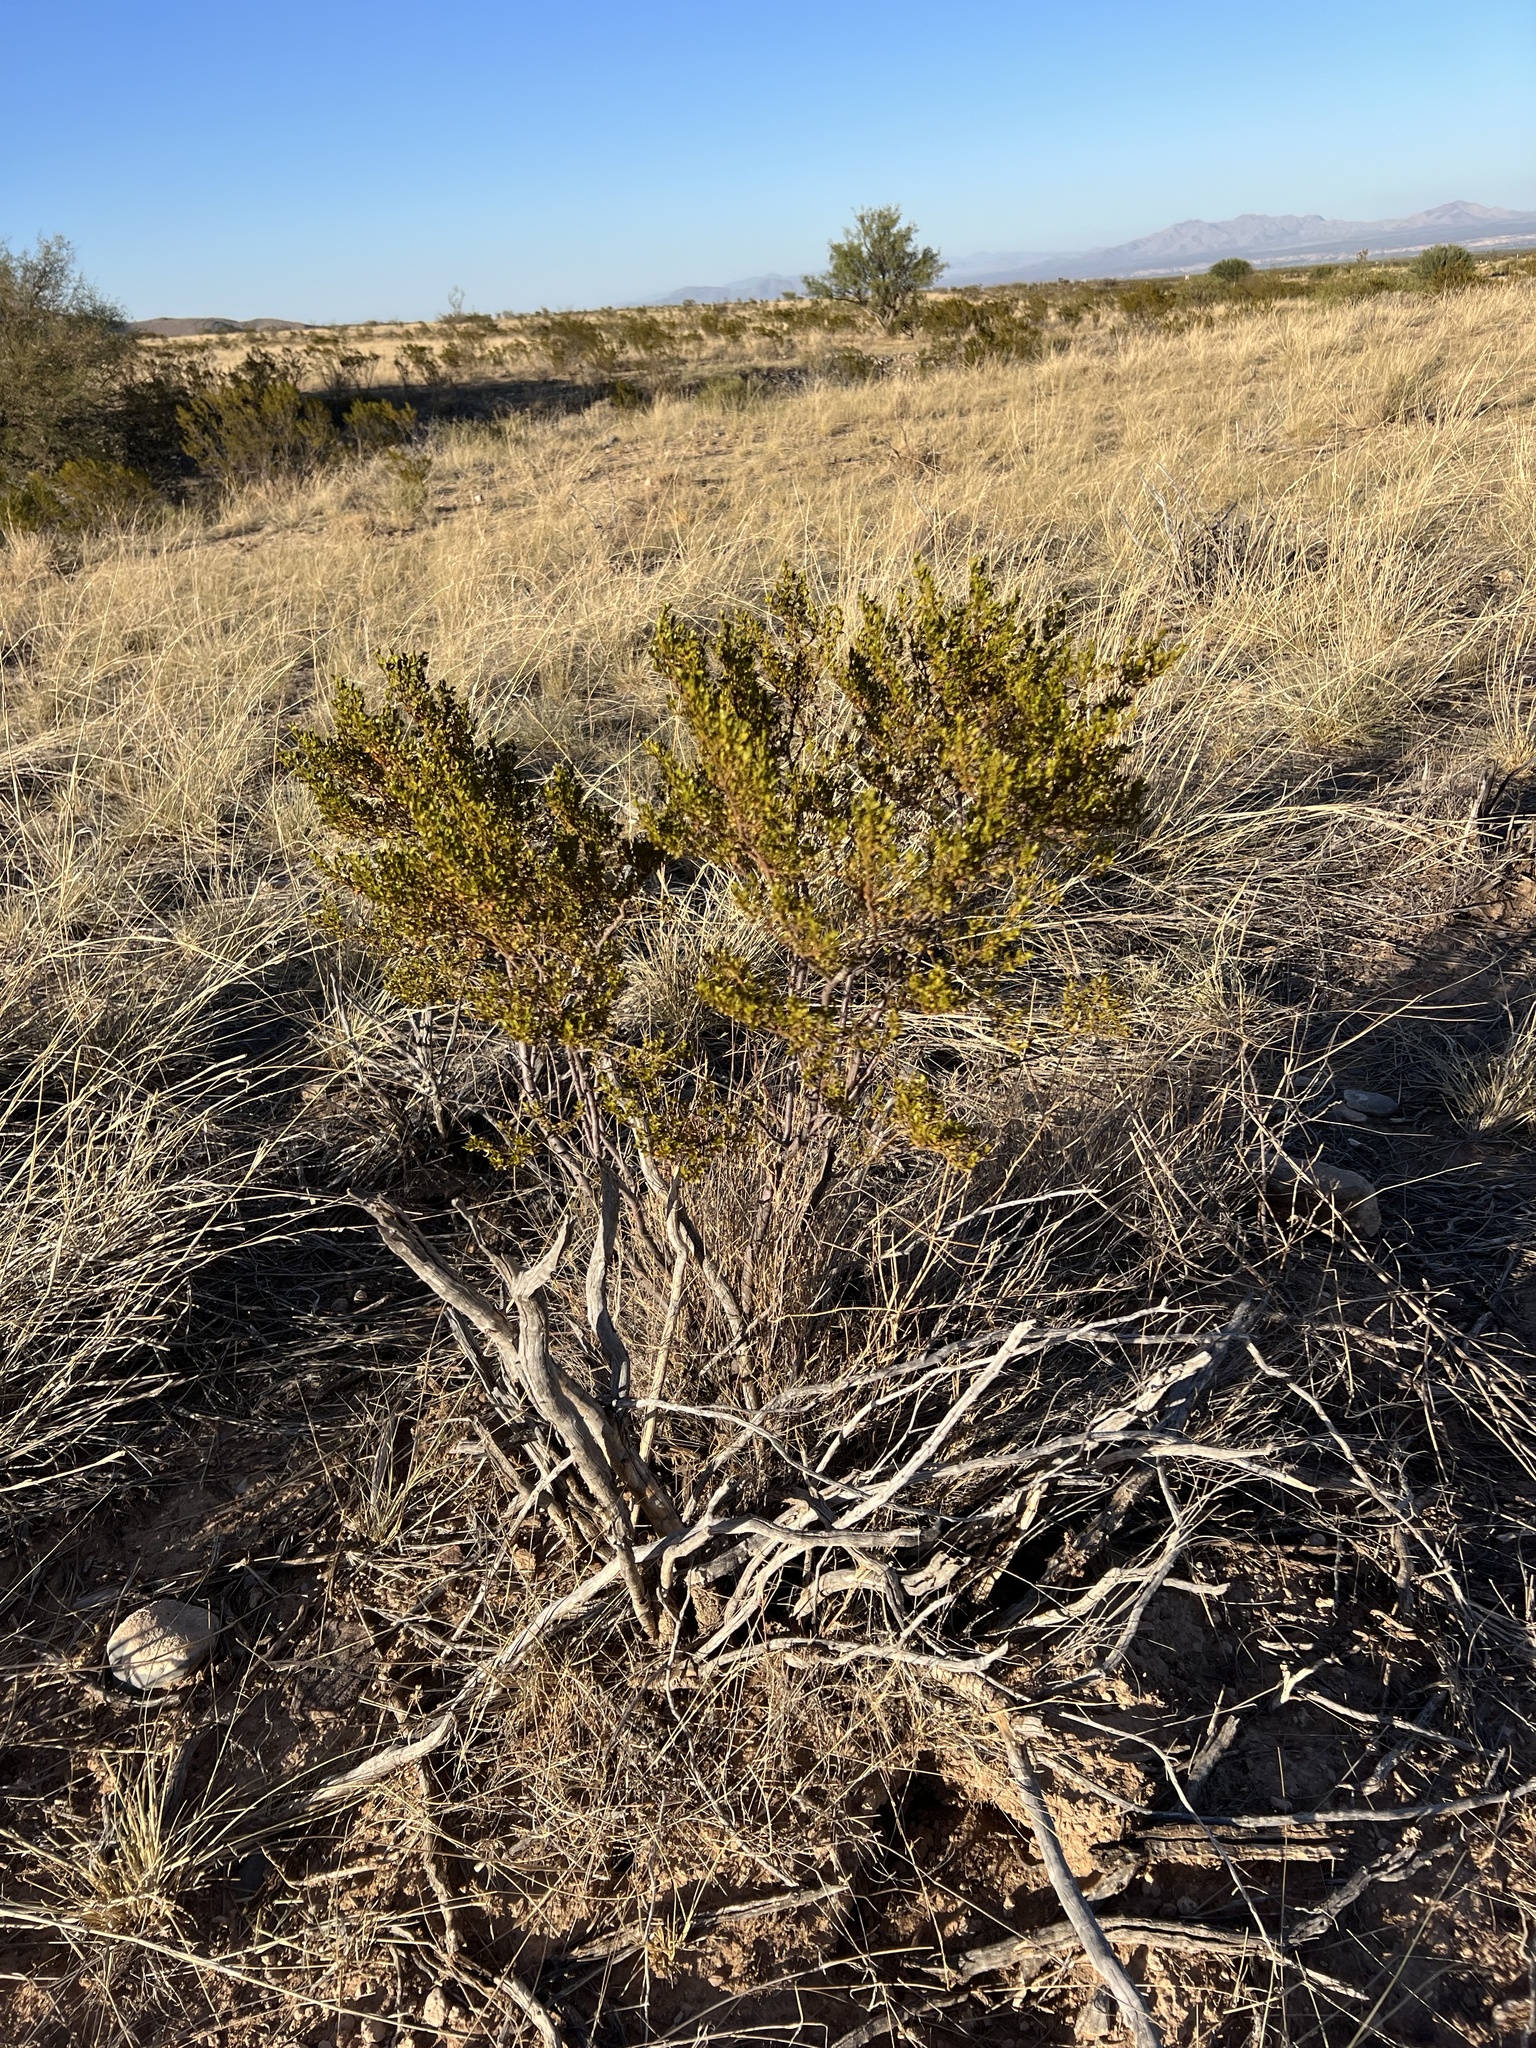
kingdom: Plantae
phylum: Tracheophyta
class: Magnoliopsida
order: Zygophyllales
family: Zygophyllaceae
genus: Larrea
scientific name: Larrea tridentata
